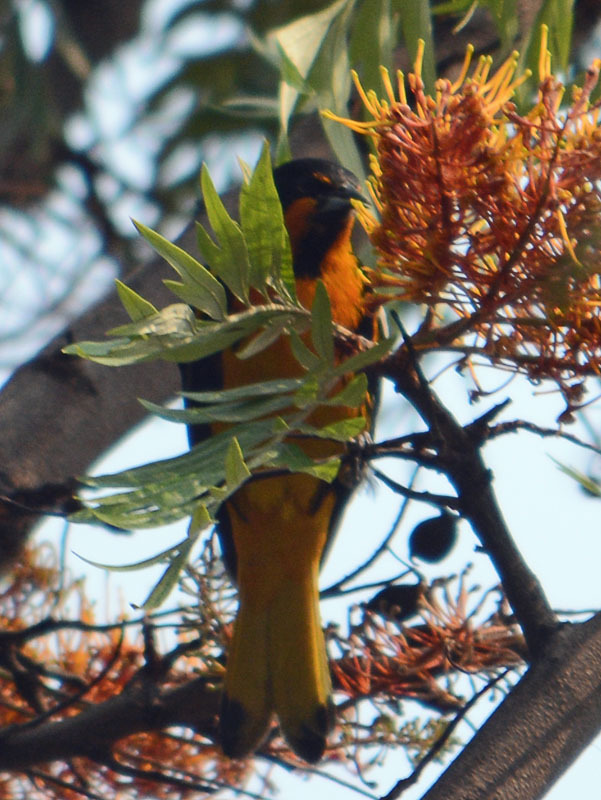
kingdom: Animalia
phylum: Chordata
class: Aves
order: Passeriformes
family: Icteridae
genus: Icterus
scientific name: Icterus abeillei
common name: Black-backed oriole
